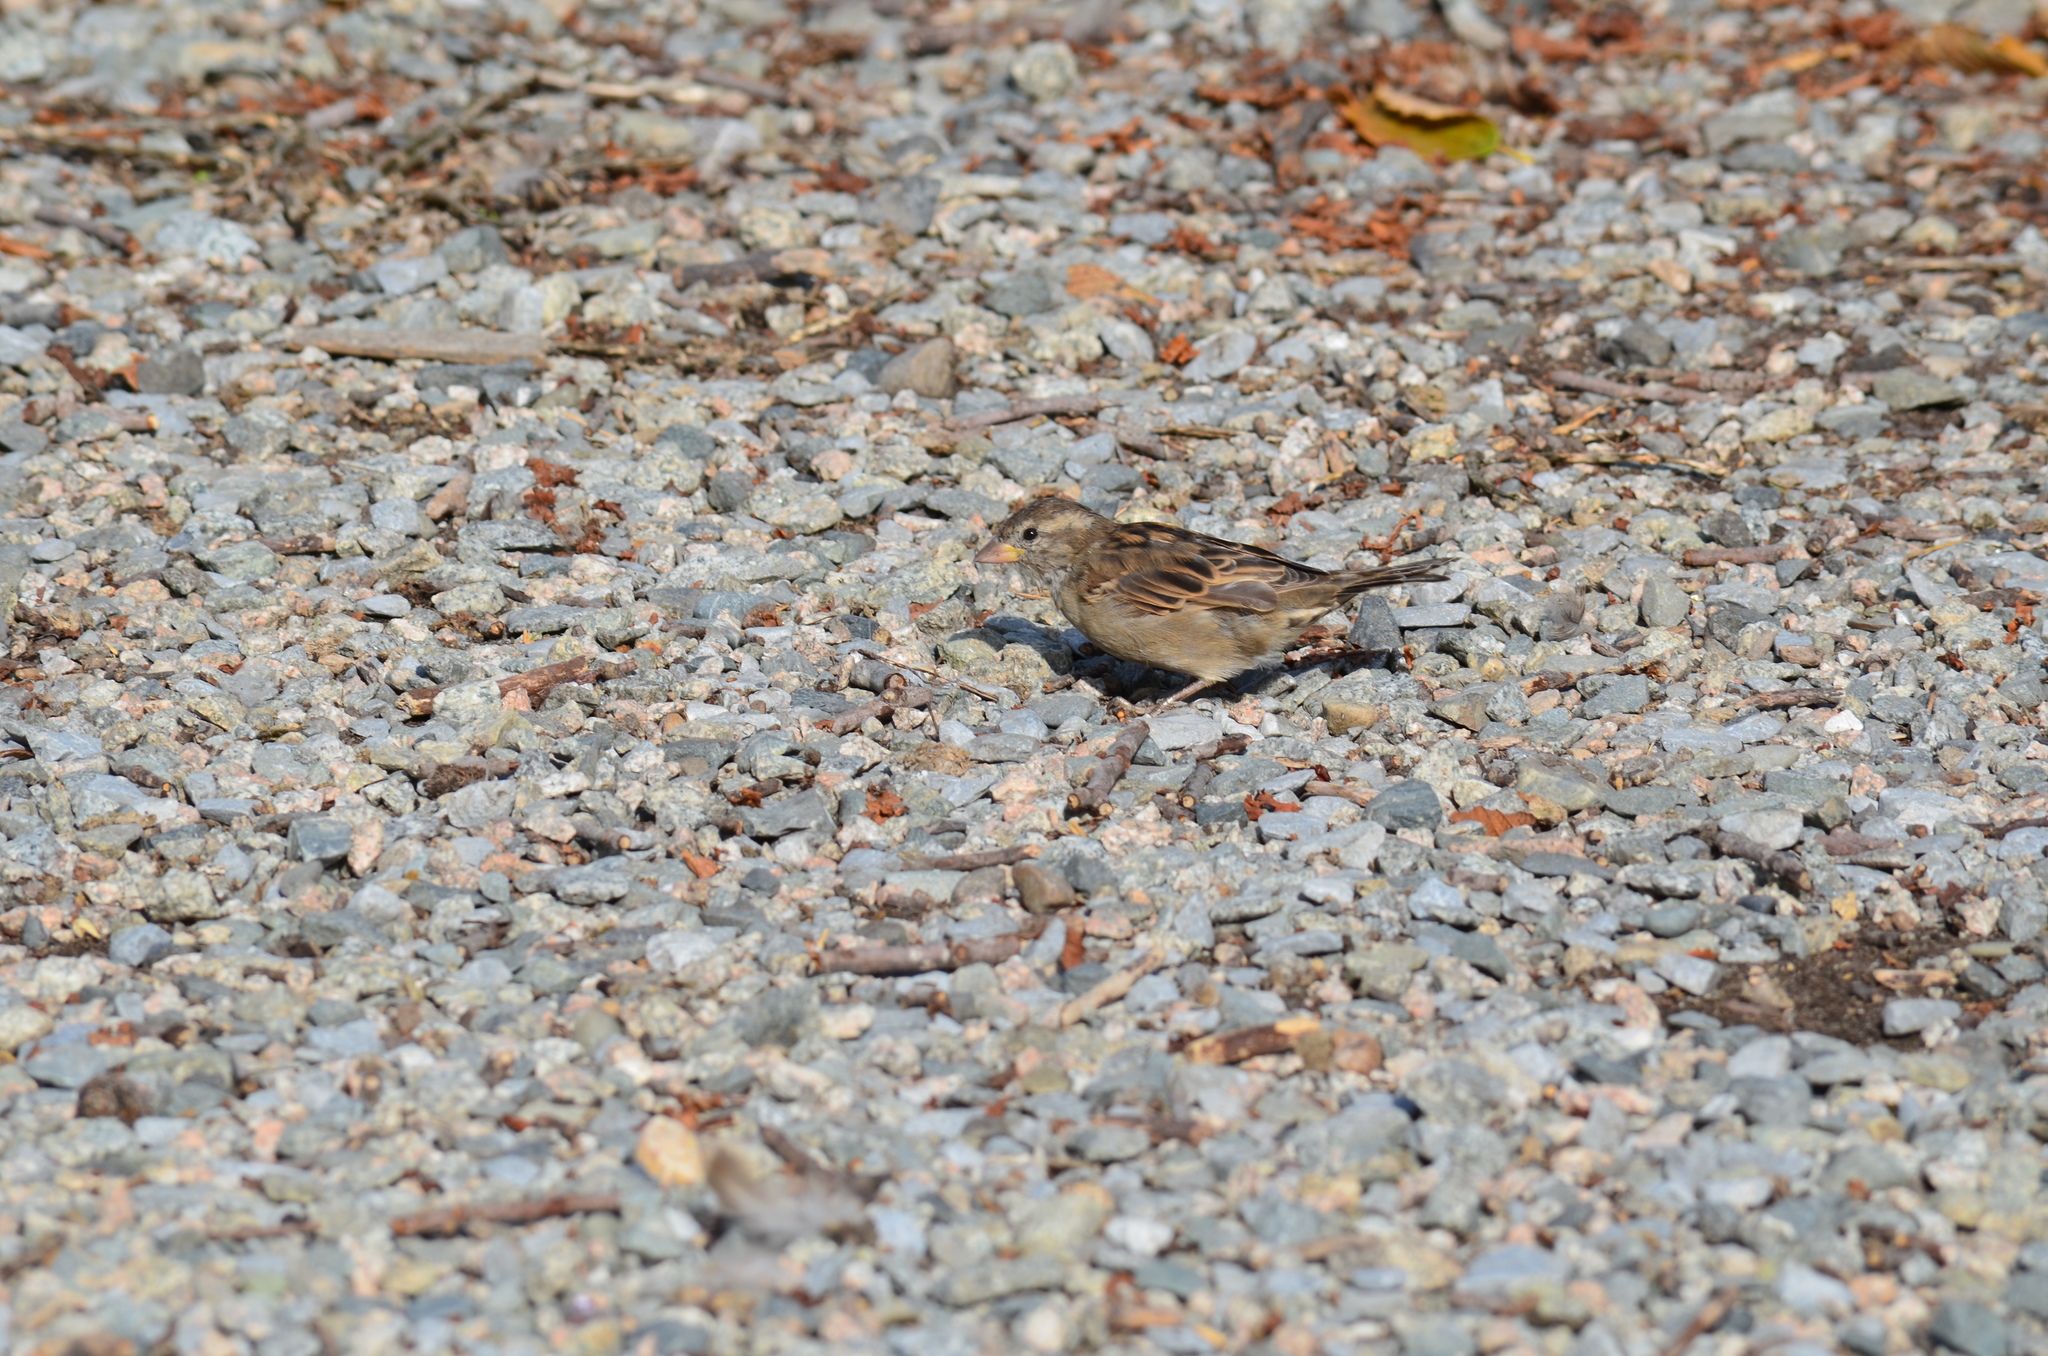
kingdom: Animalia
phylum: Chordata
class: Aves
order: Passeriformes
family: Passeridae
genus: Passer
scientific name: Passer domesticus
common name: House sparrow
